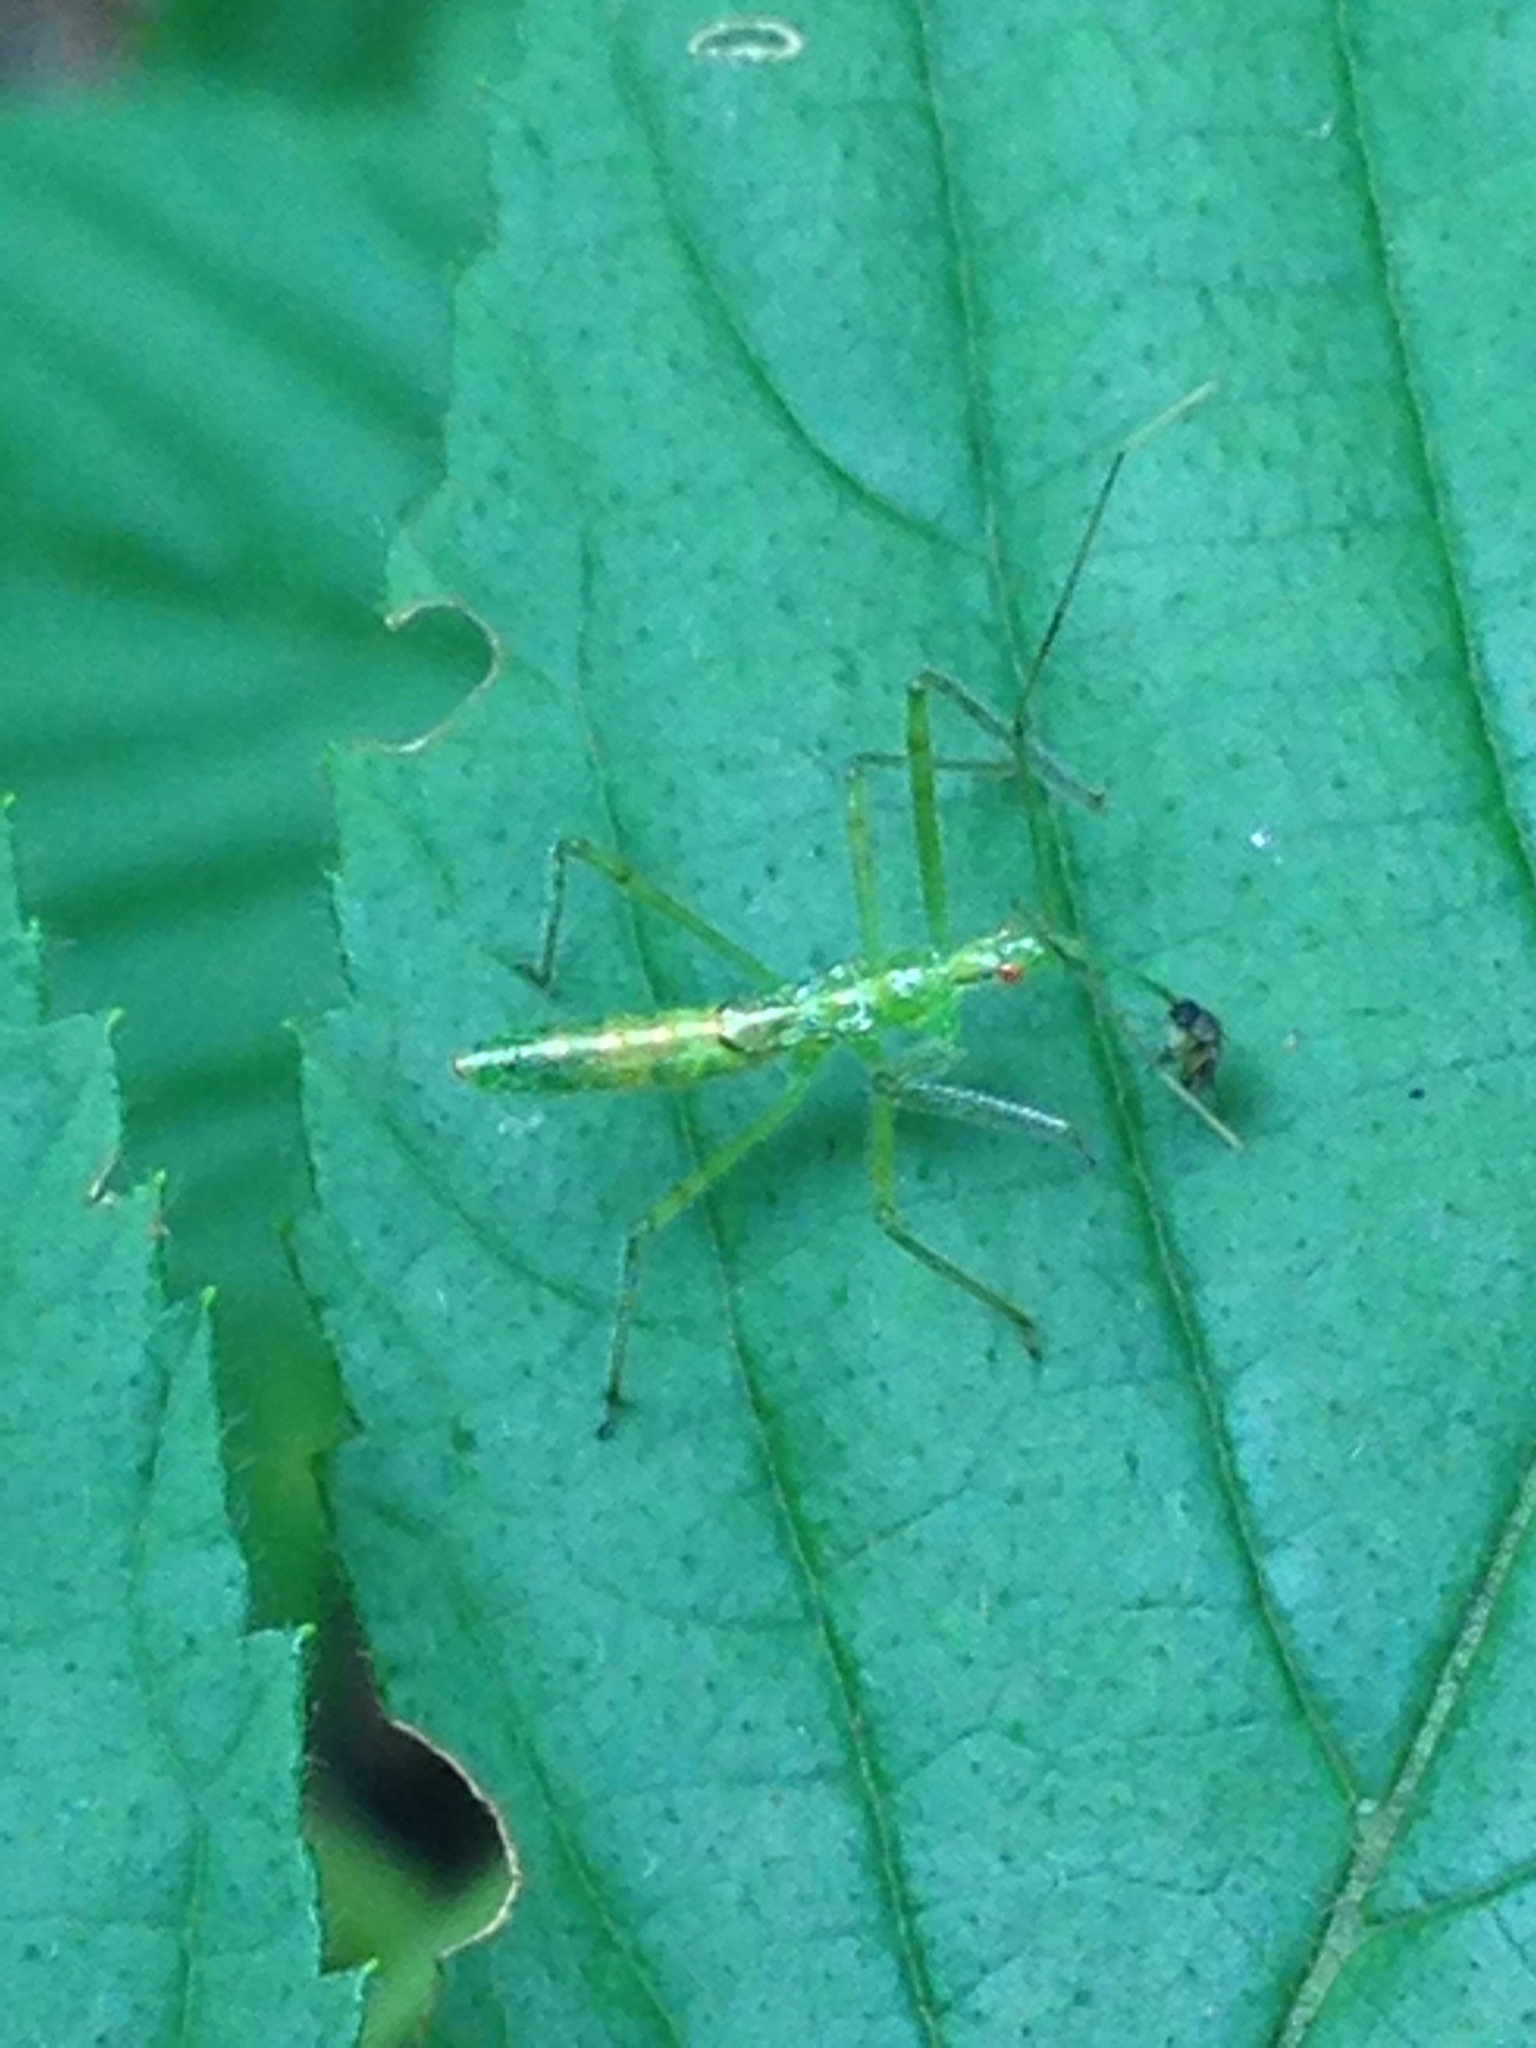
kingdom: Animalia
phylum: Arthropoda
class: Insecta
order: Hemiptera
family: Reduviidae
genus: Zelus
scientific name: Zelus luridus
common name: Pale green assassin bug
